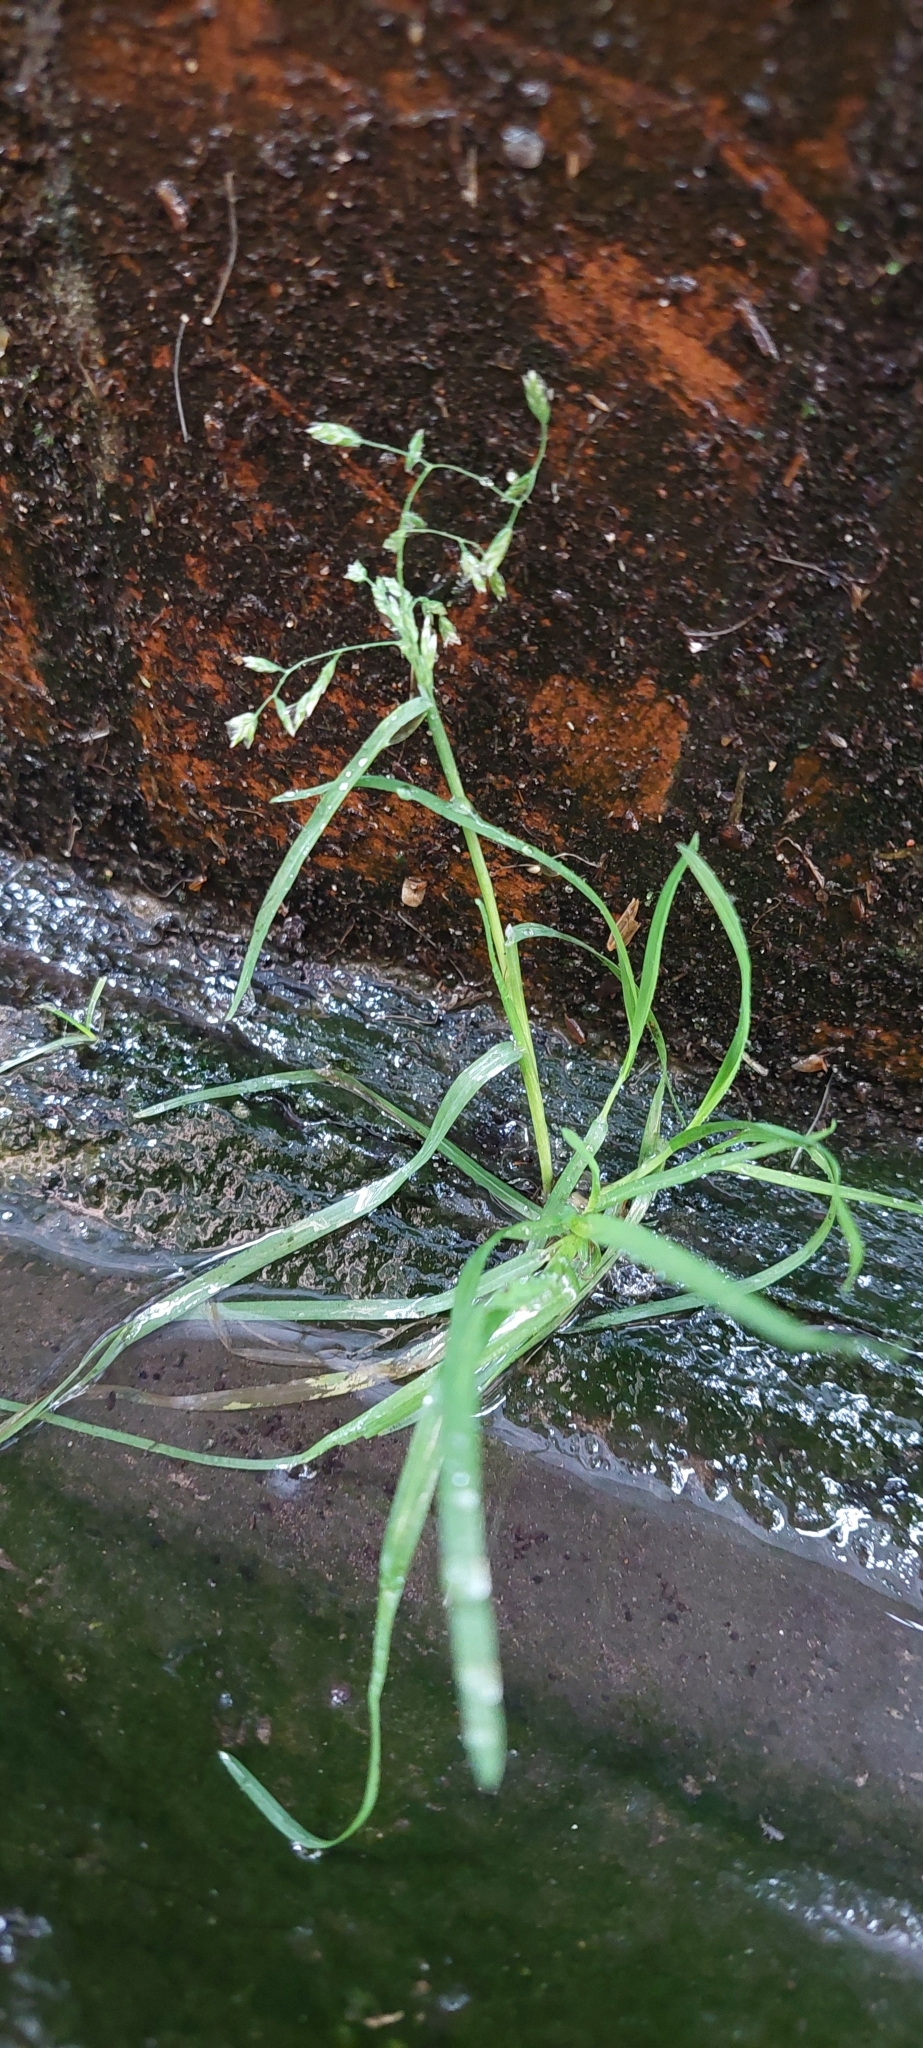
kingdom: Plantae
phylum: Tracheophyta
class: Liliopsida
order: Poales
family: Poaceae
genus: Poa
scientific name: Poa annua
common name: Annual bluegrass
